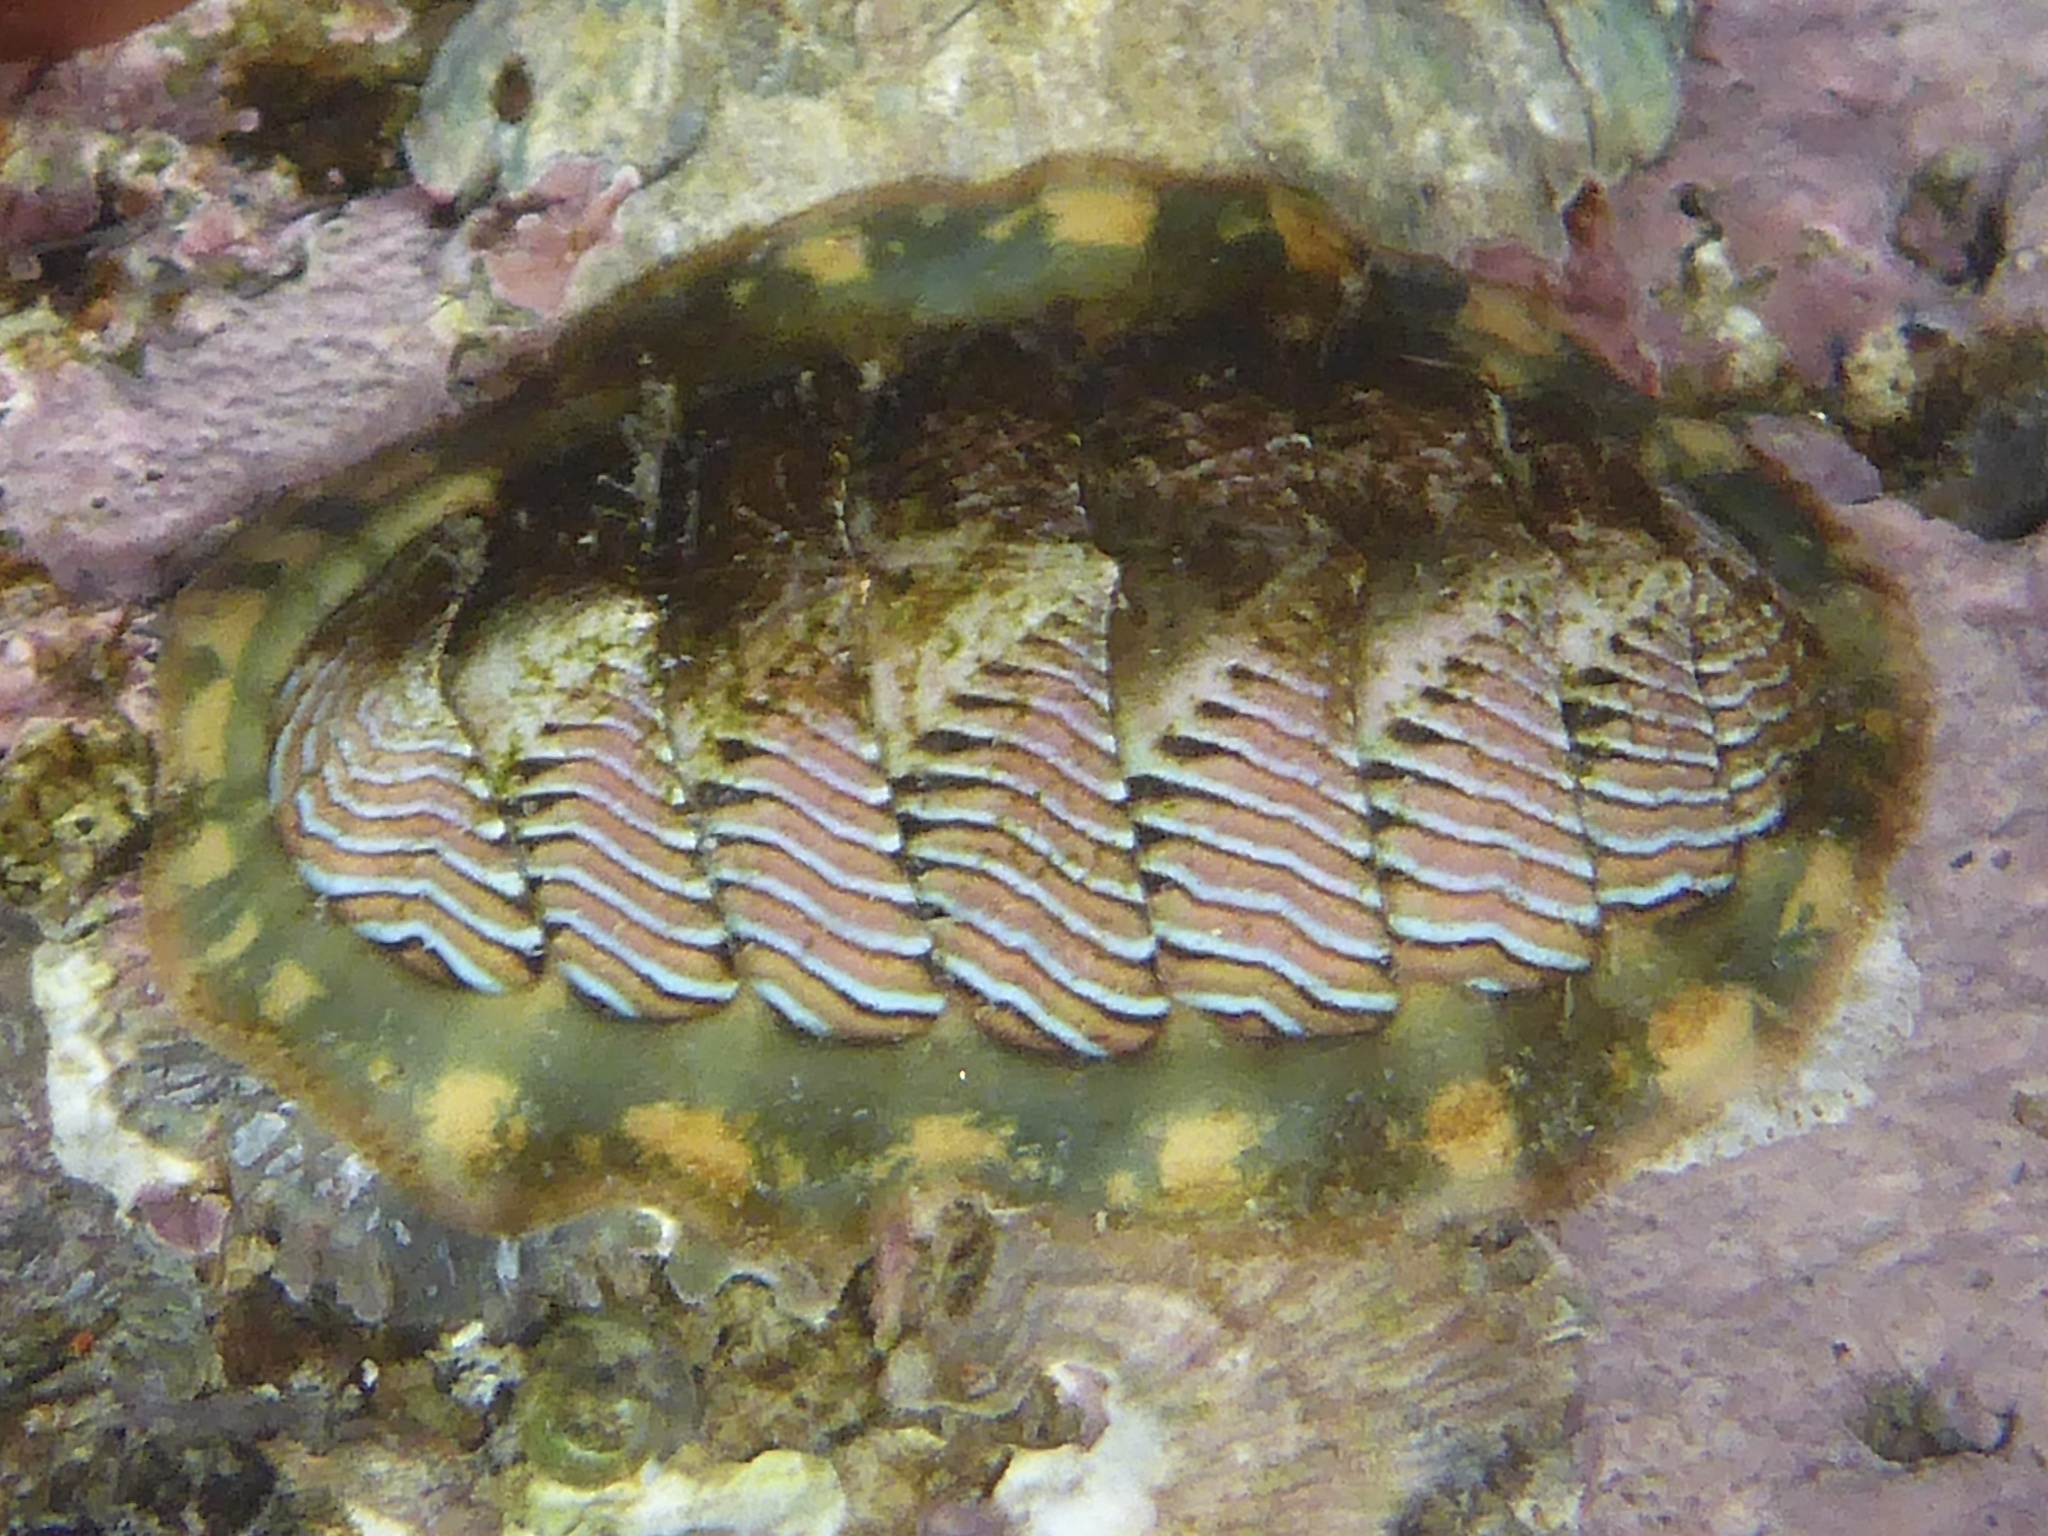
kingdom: Animalia
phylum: Mollusca
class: Polyplacophora
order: Chitonida
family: Tonicellidae
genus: Tonicella
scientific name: Tonicella lineata
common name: Lined chiton
